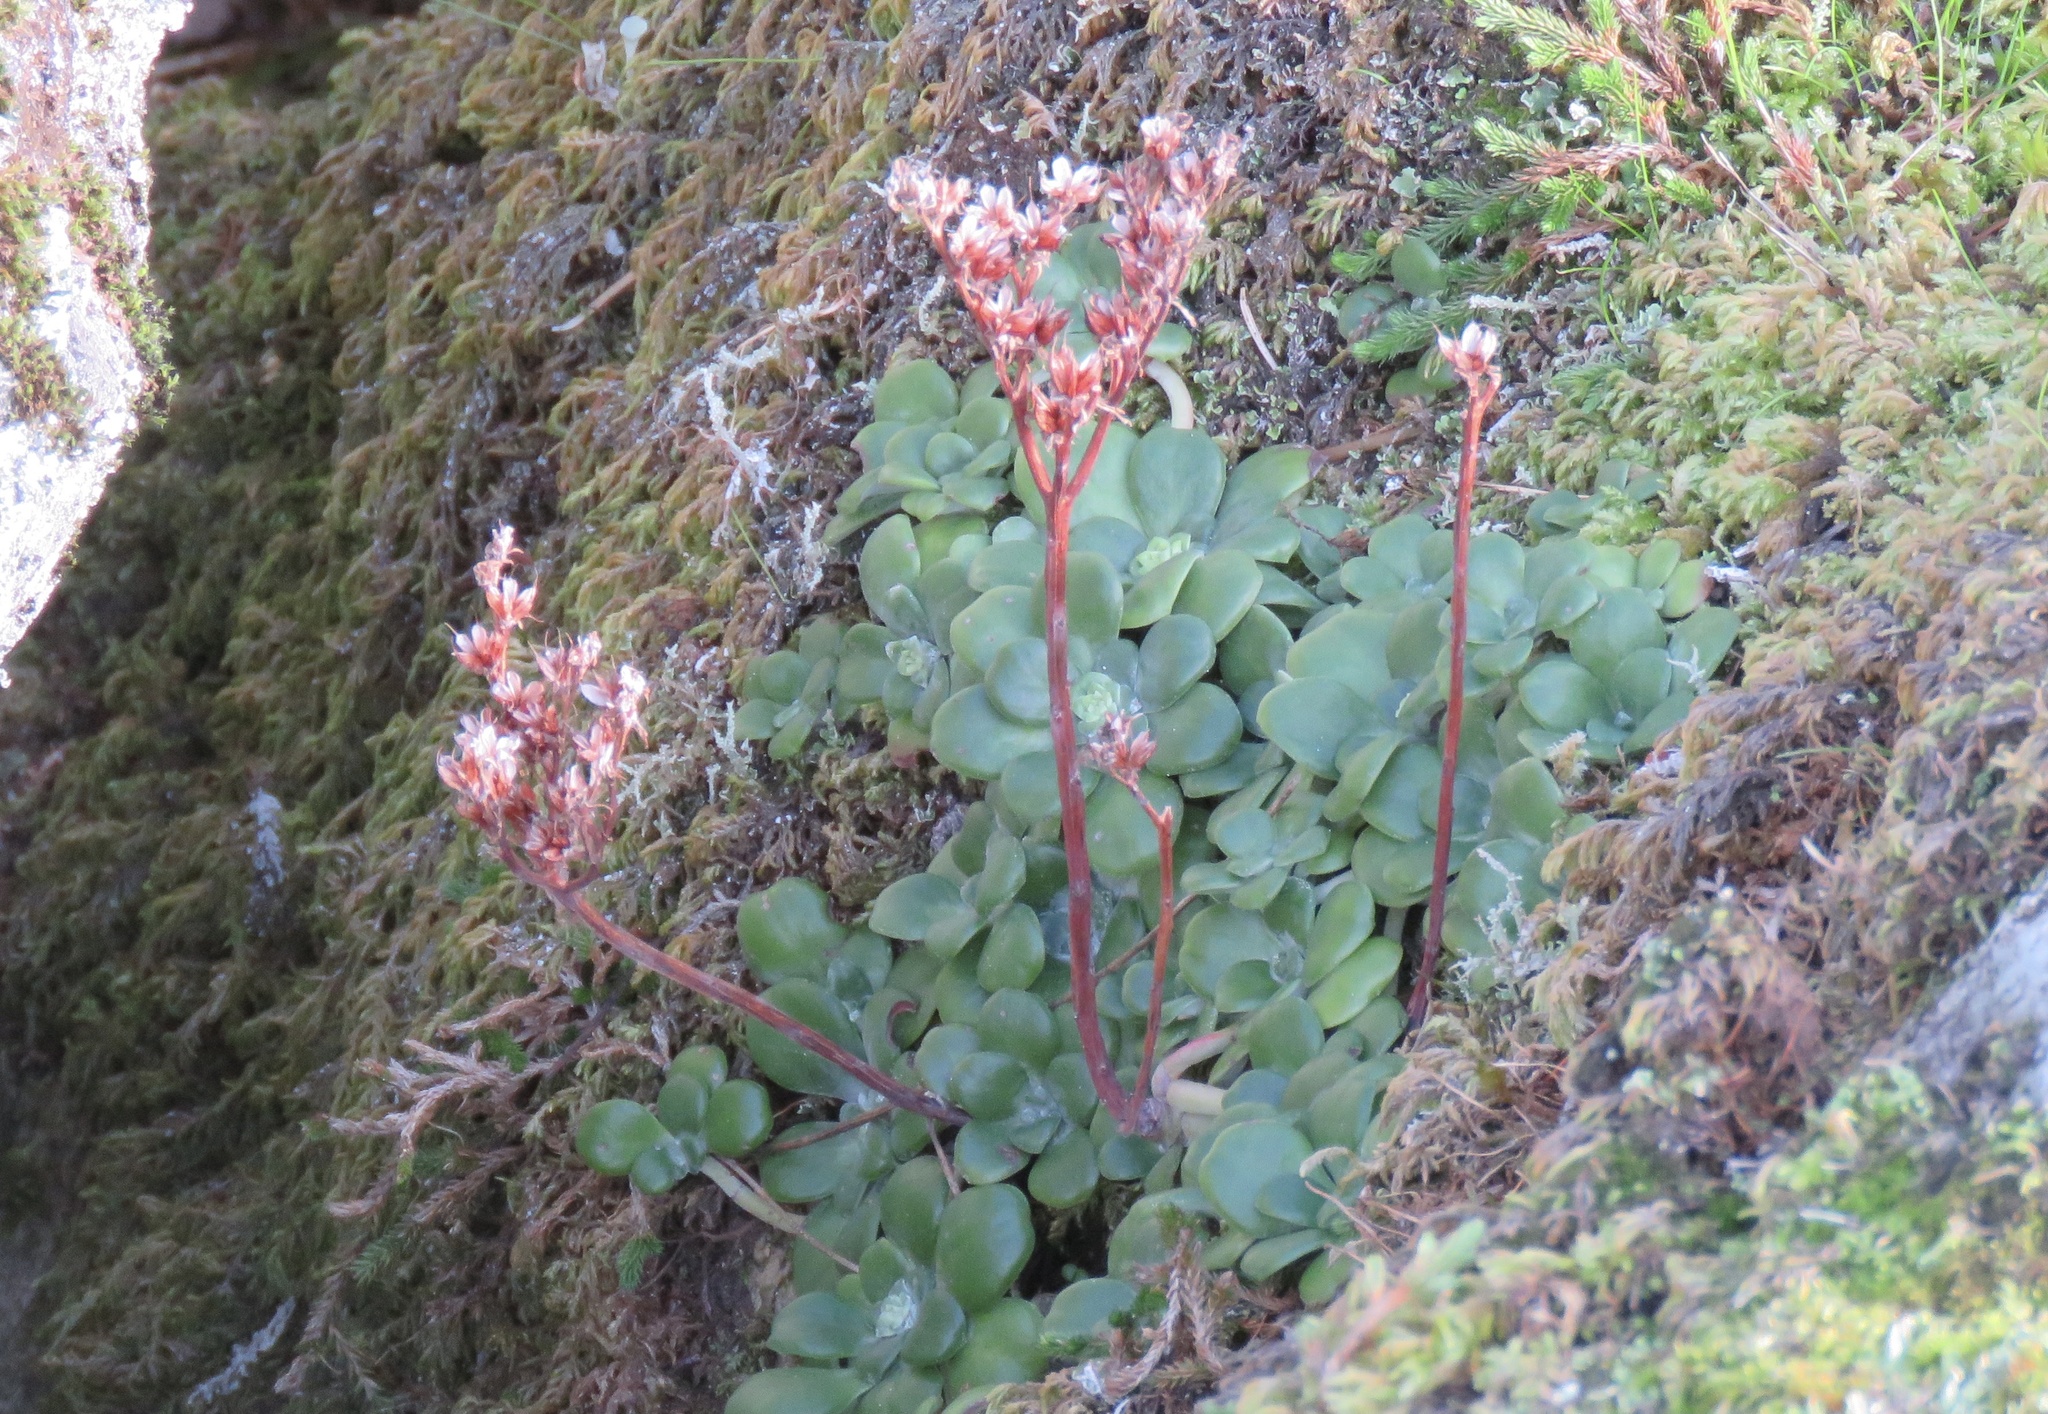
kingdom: Plantae
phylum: Tracheophyta
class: Magnoliopsida
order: Saxifragales
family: Crassulaceae
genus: Sedum
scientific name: Sedum spathulifolium
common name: Colorado stonecrop
